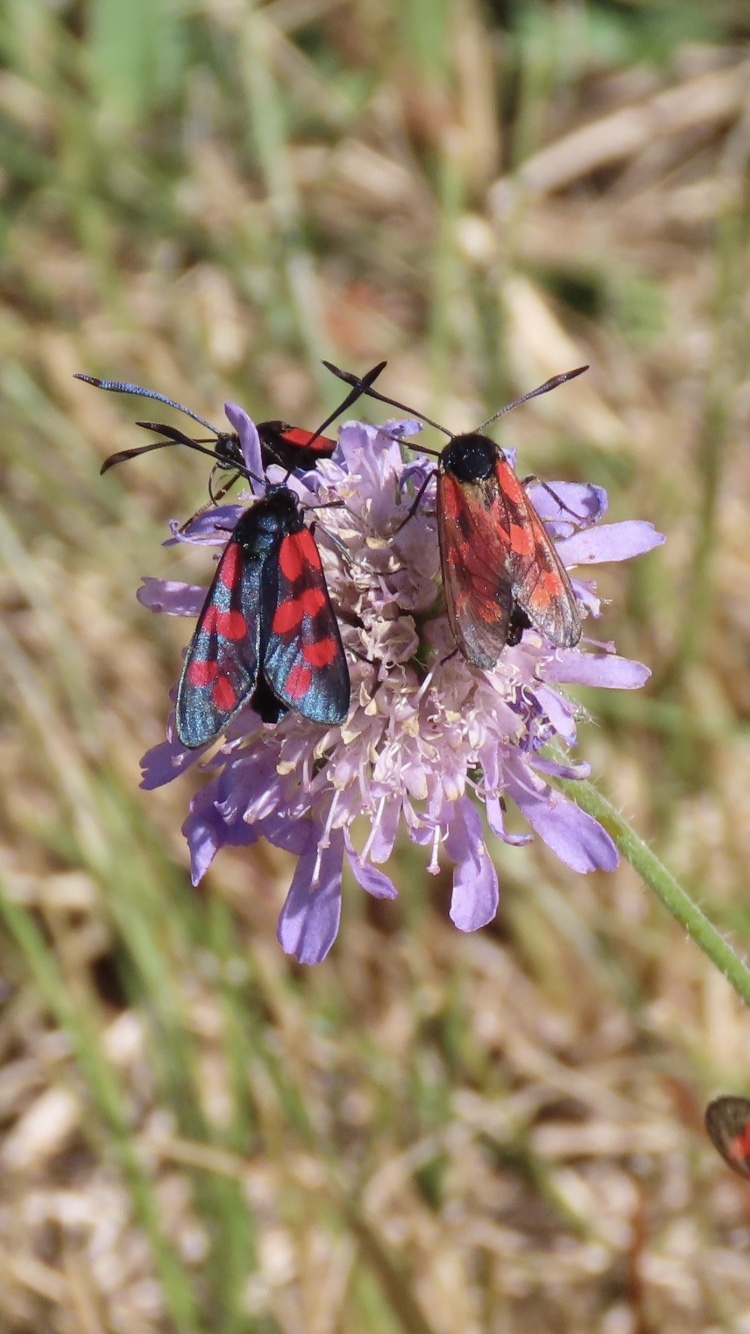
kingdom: Animalia
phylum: Arthropoda
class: Insecta
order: Lepidoptera
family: Zygaenidae
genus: Zygaena
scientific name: Zygaena filipendulae
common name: Six-spot burnet
